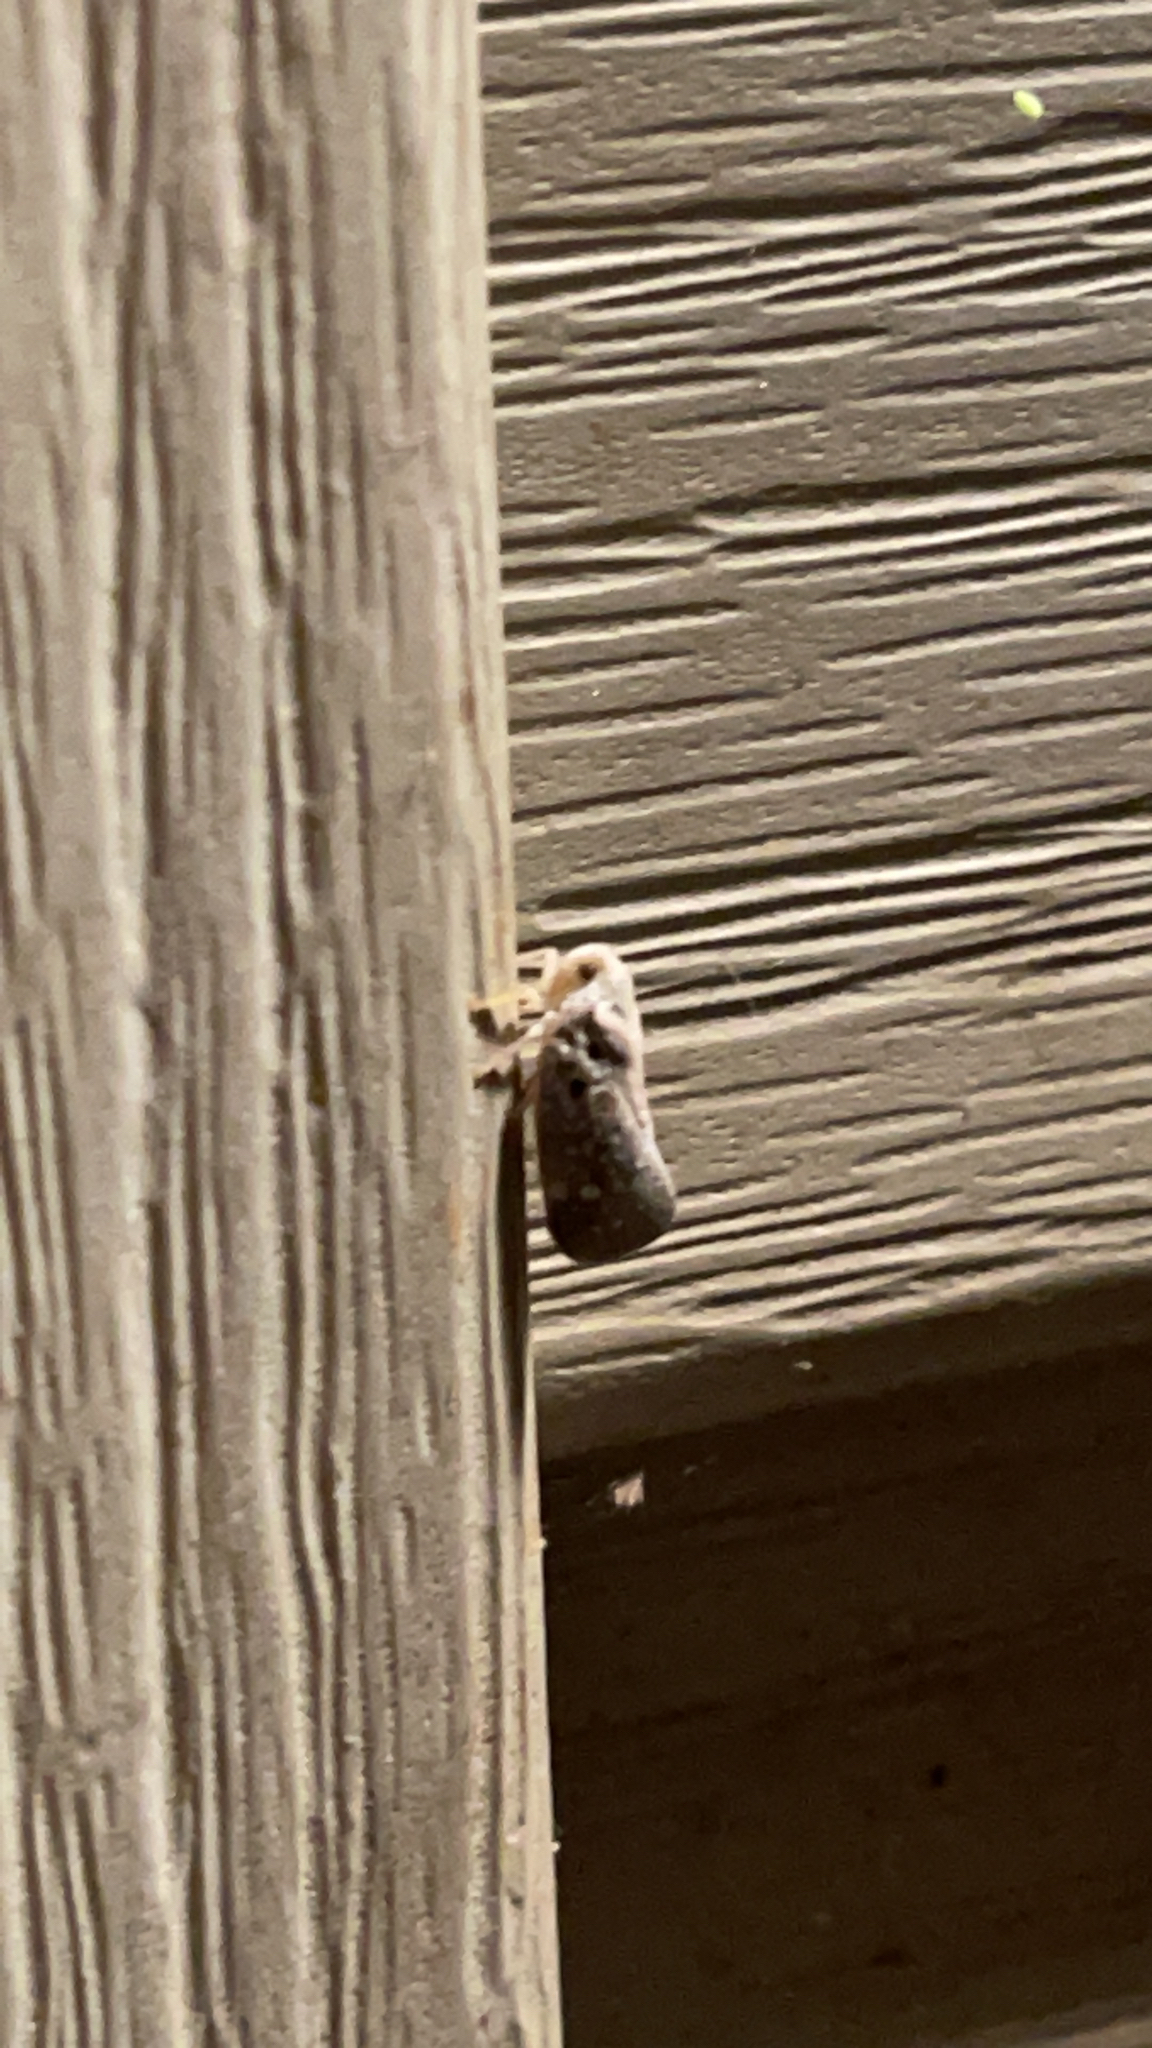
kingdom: Animalia
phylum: Arthropoda
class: Insecta
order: Hemiptera
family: Flatidae
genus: Metcalfa
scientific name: Metcalfa pruinosa
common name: Citrus flatid planthopper
